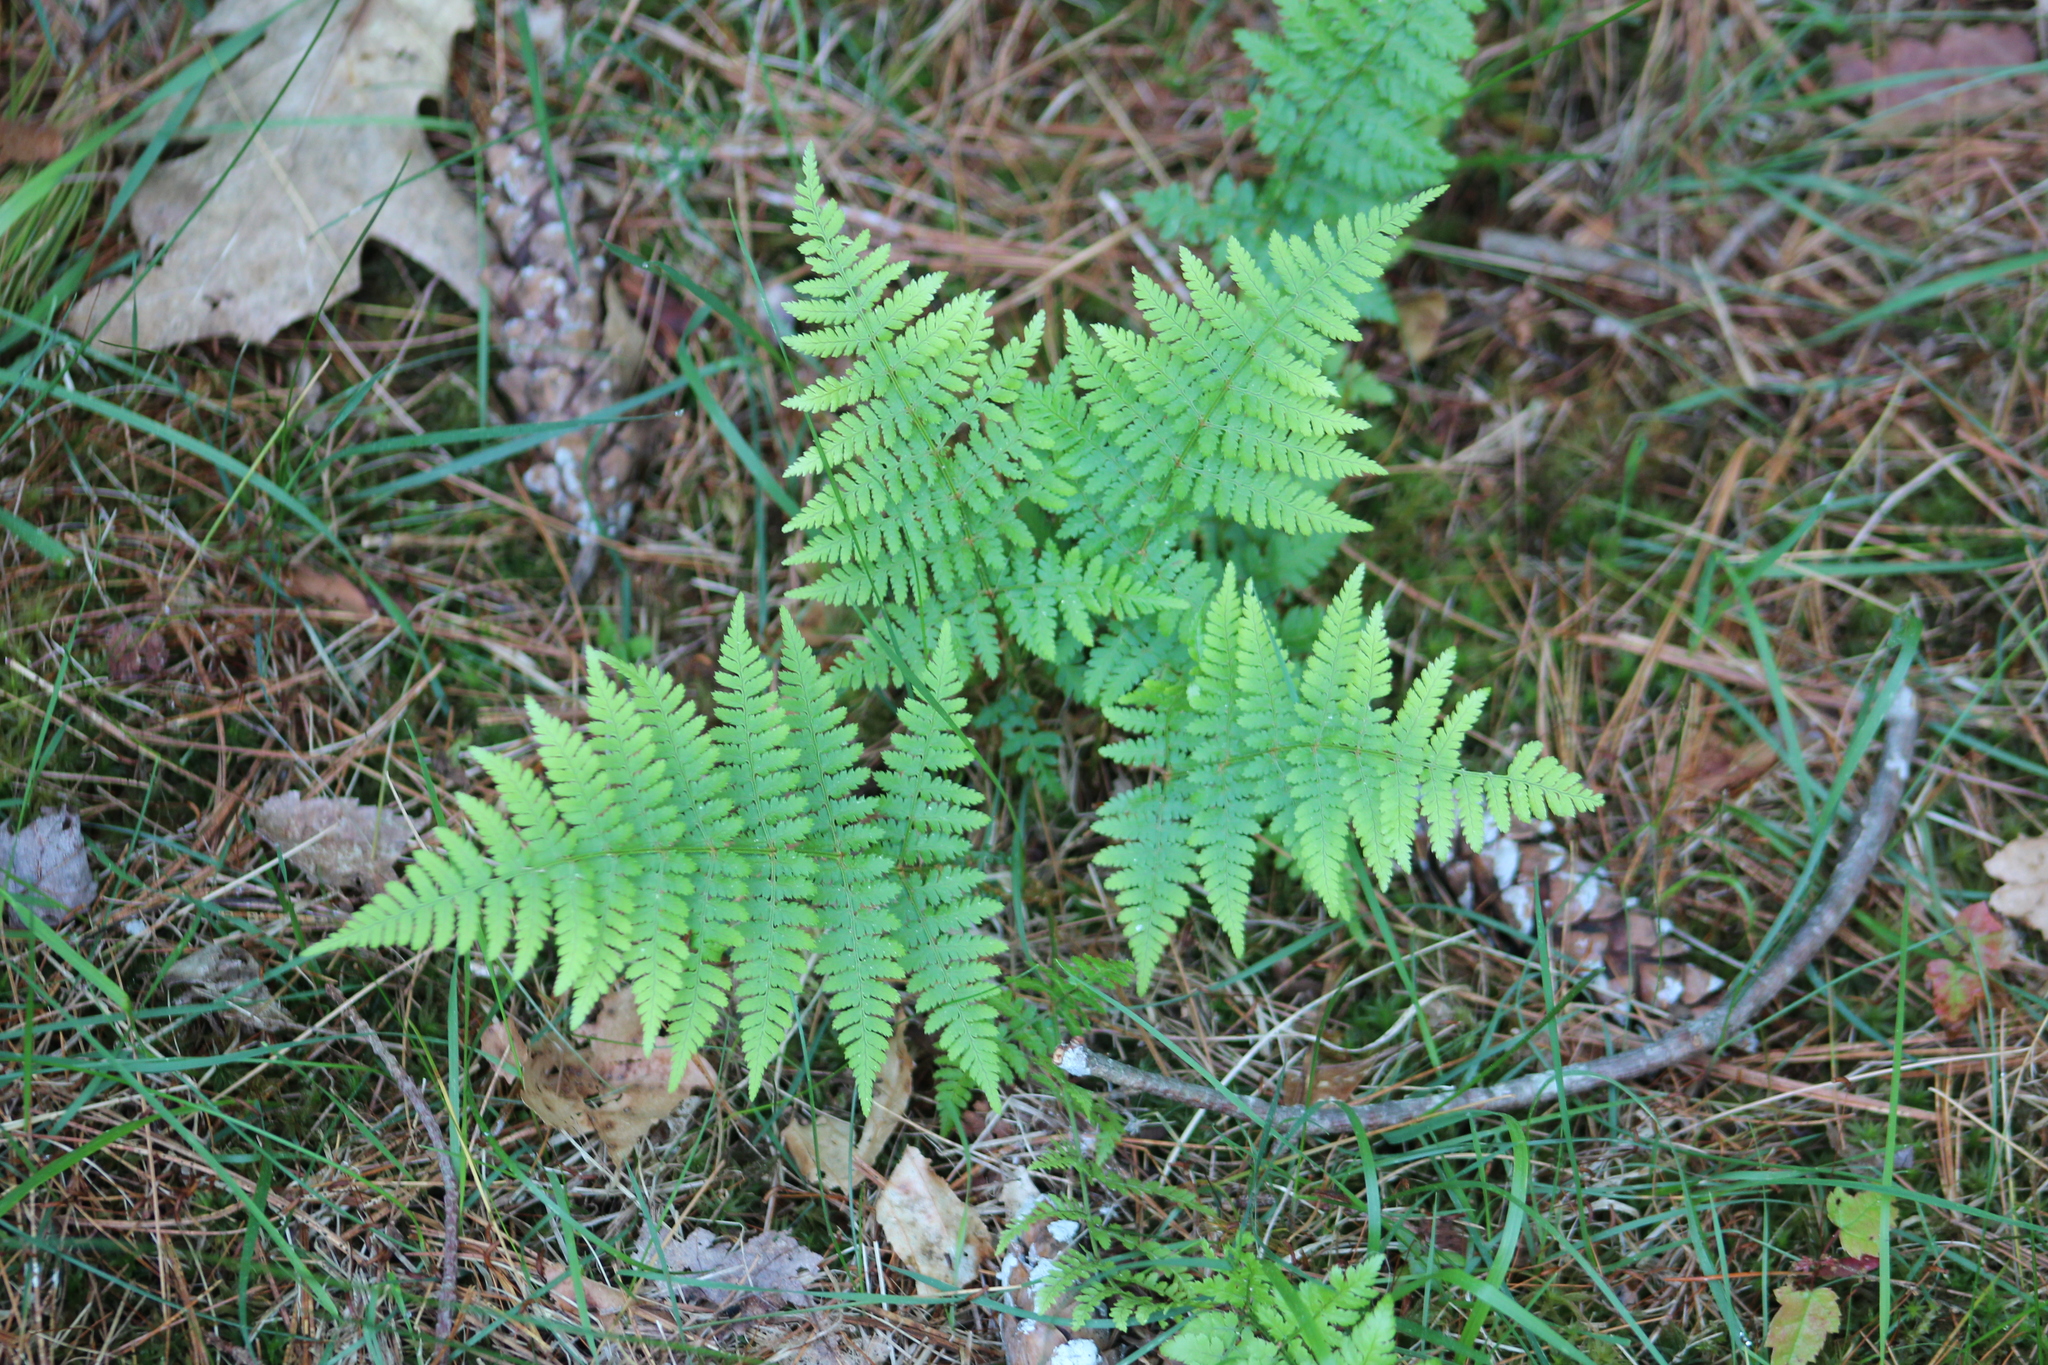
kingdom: Plantae
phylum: Tracheophyta
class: Polypodiopsida
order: Polypodiales
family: Dryopteridaceae
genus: Dryopteris
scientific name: Dryopteris intermedia
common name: Evergreen wood fern
